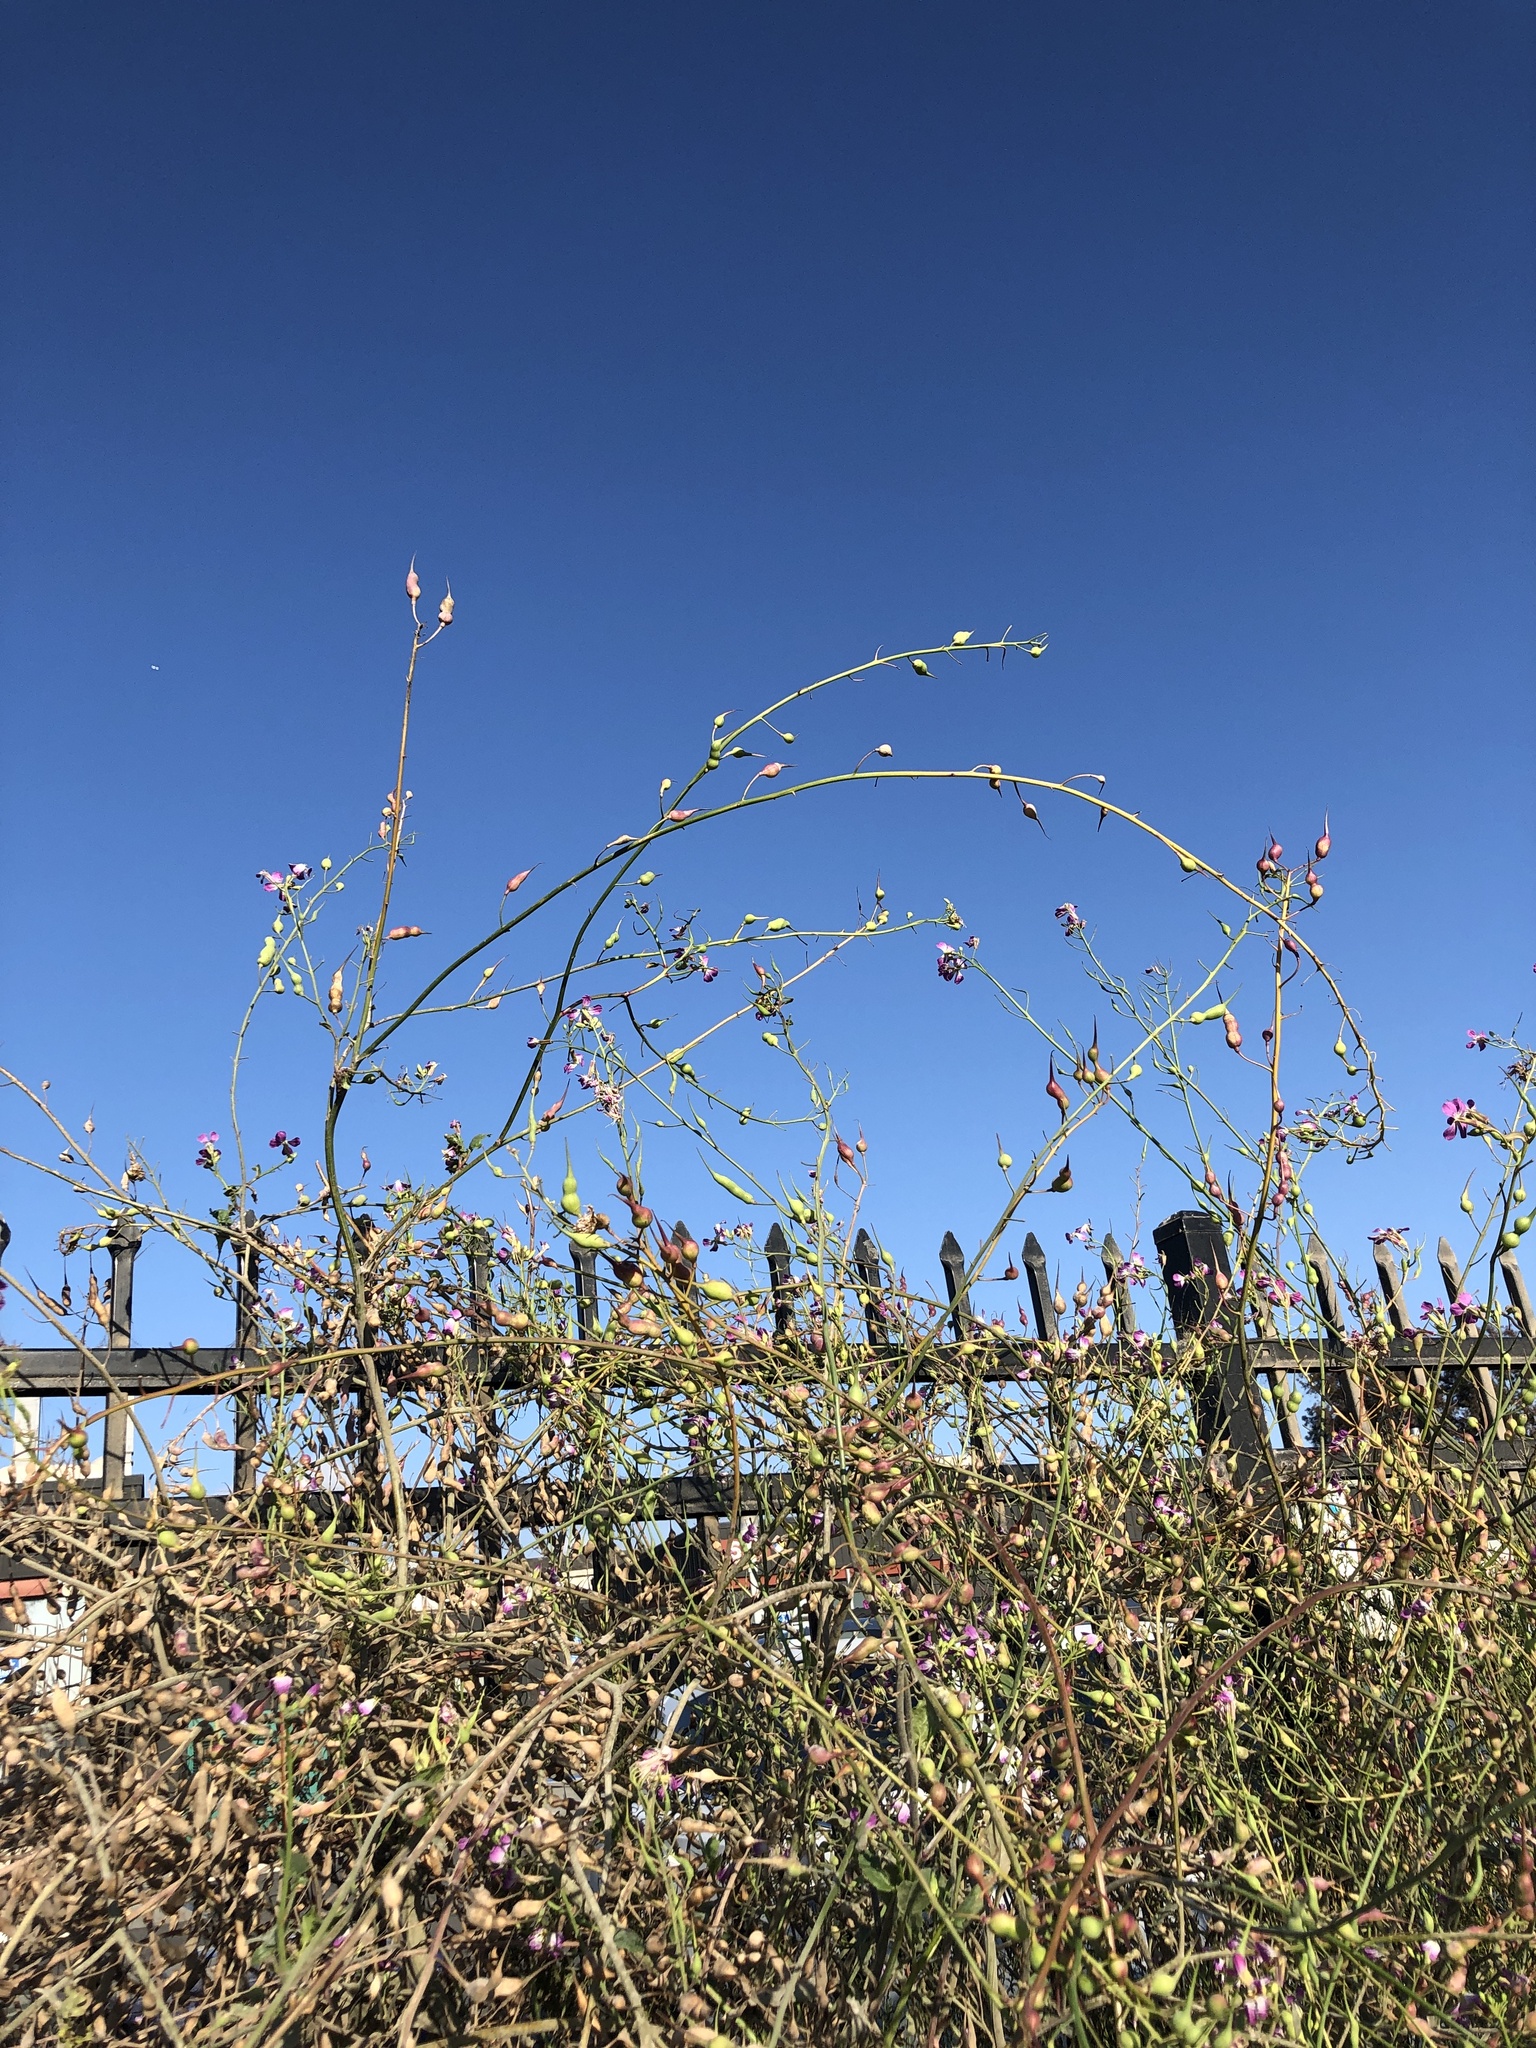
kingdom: Plantae
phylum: Tracheophyta
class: Magnoliopsida
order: Brassicales
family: Brassicaceae
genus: Raphanus
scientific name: Raphanus sativus
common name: Cultivated radish
